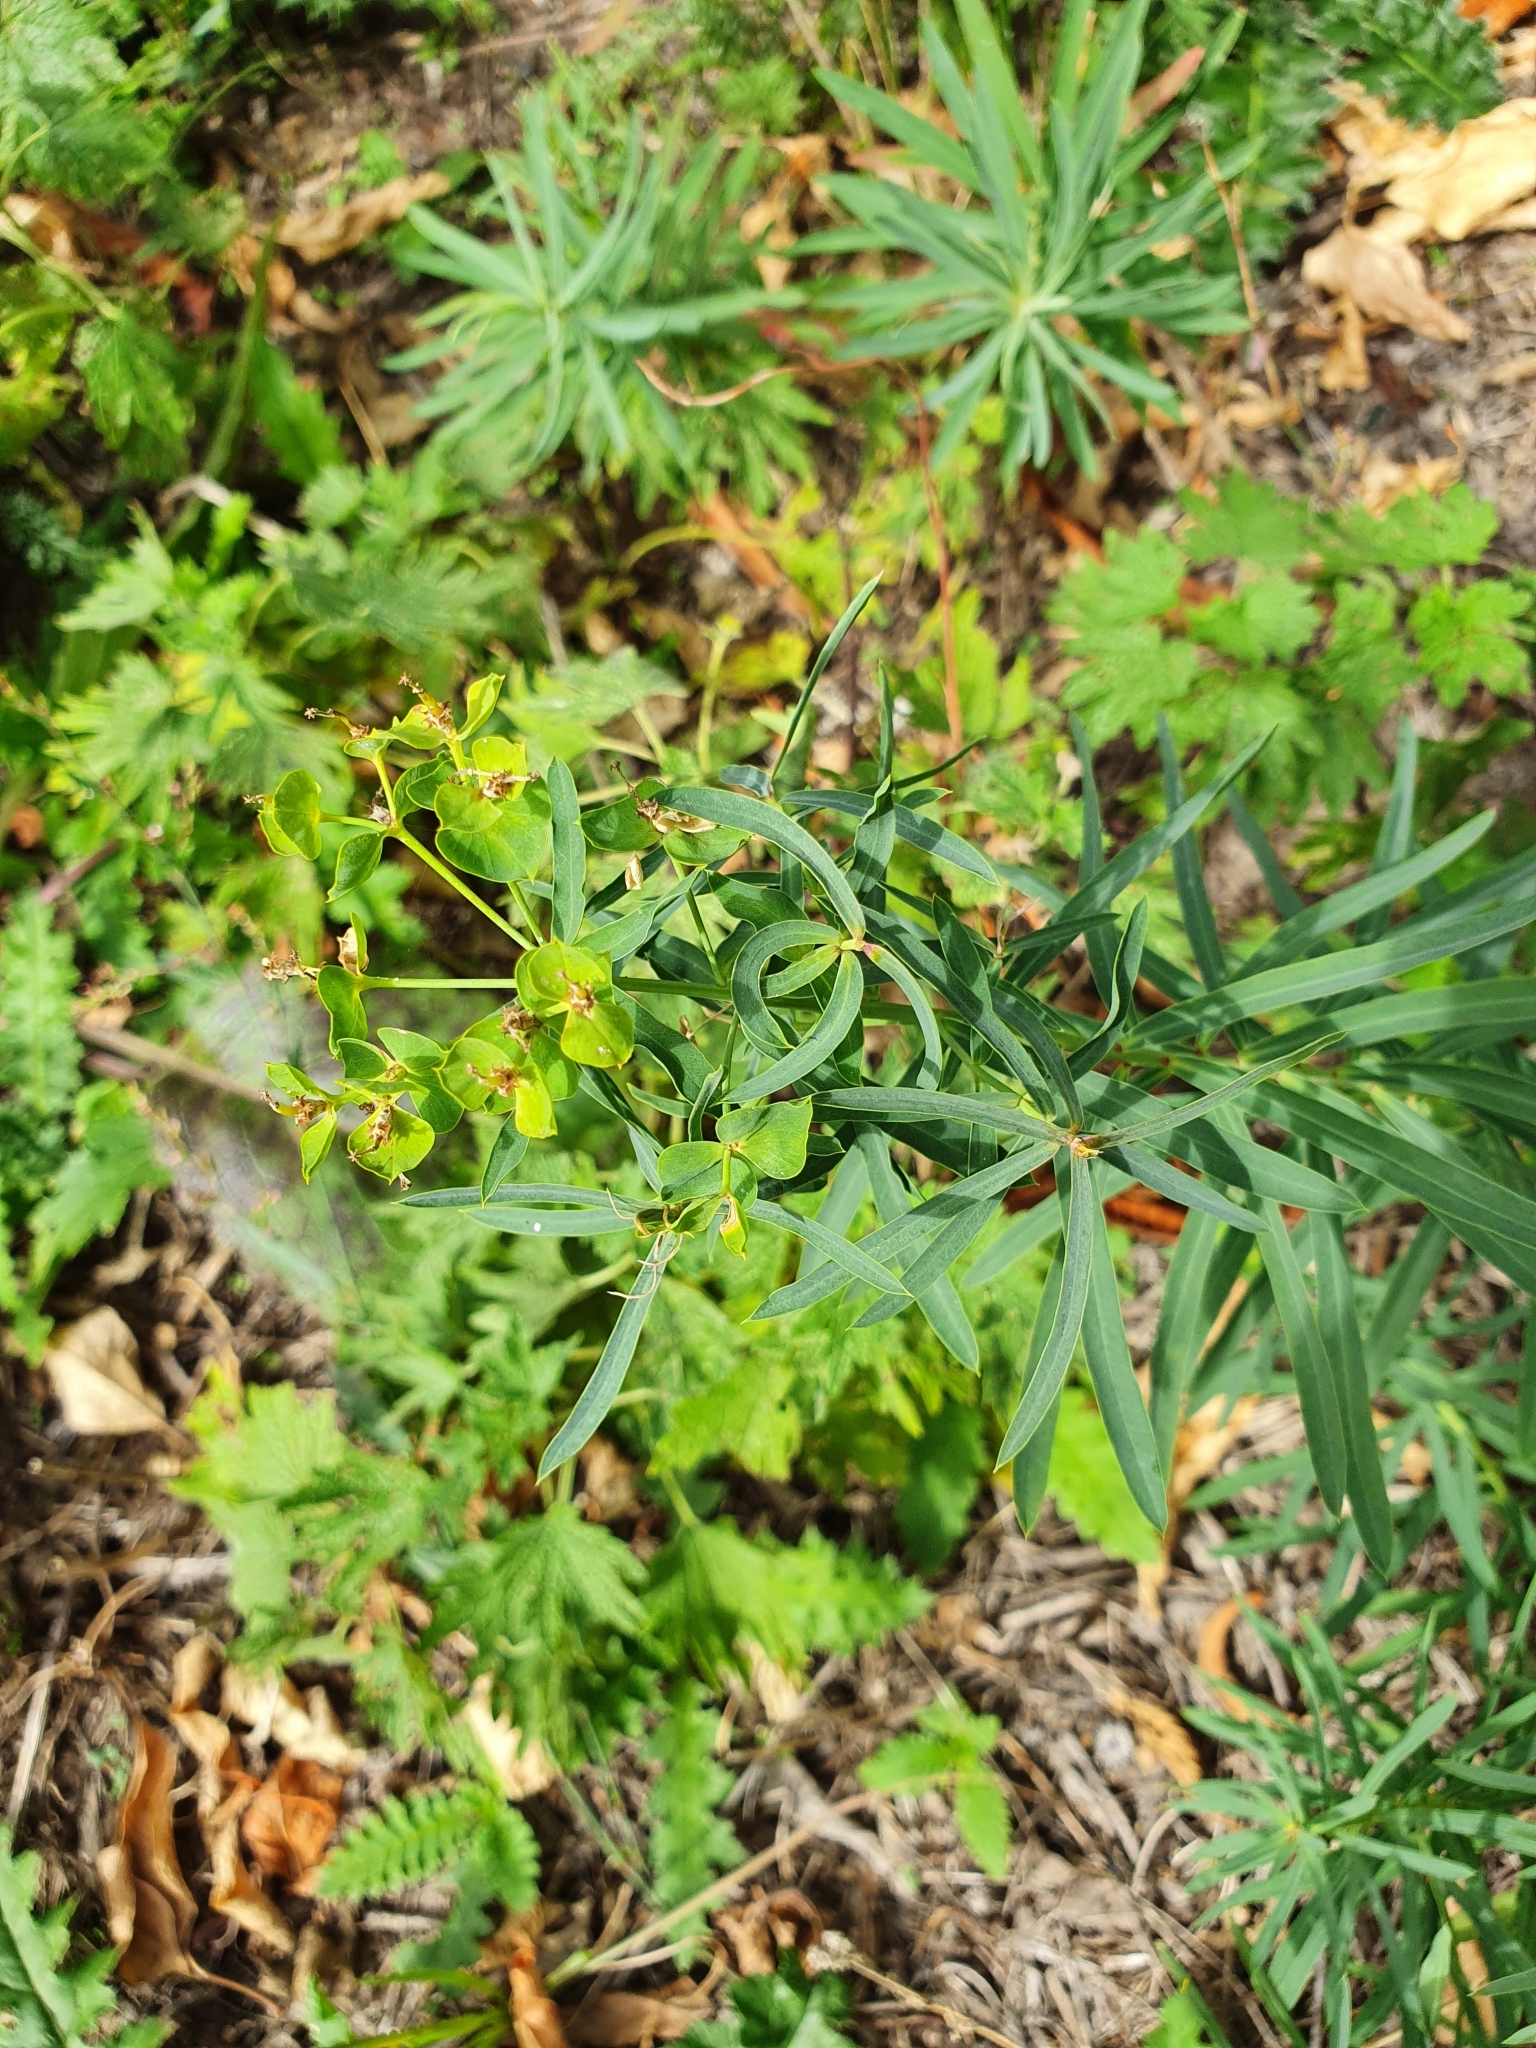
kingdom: Plantae
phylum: Tracheophyta
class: Magnoliopsida
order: Malpighiales
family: Euphorbiaceae
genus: Euphorbia
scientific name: Euphorbia virgata
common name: Leafy spurge
